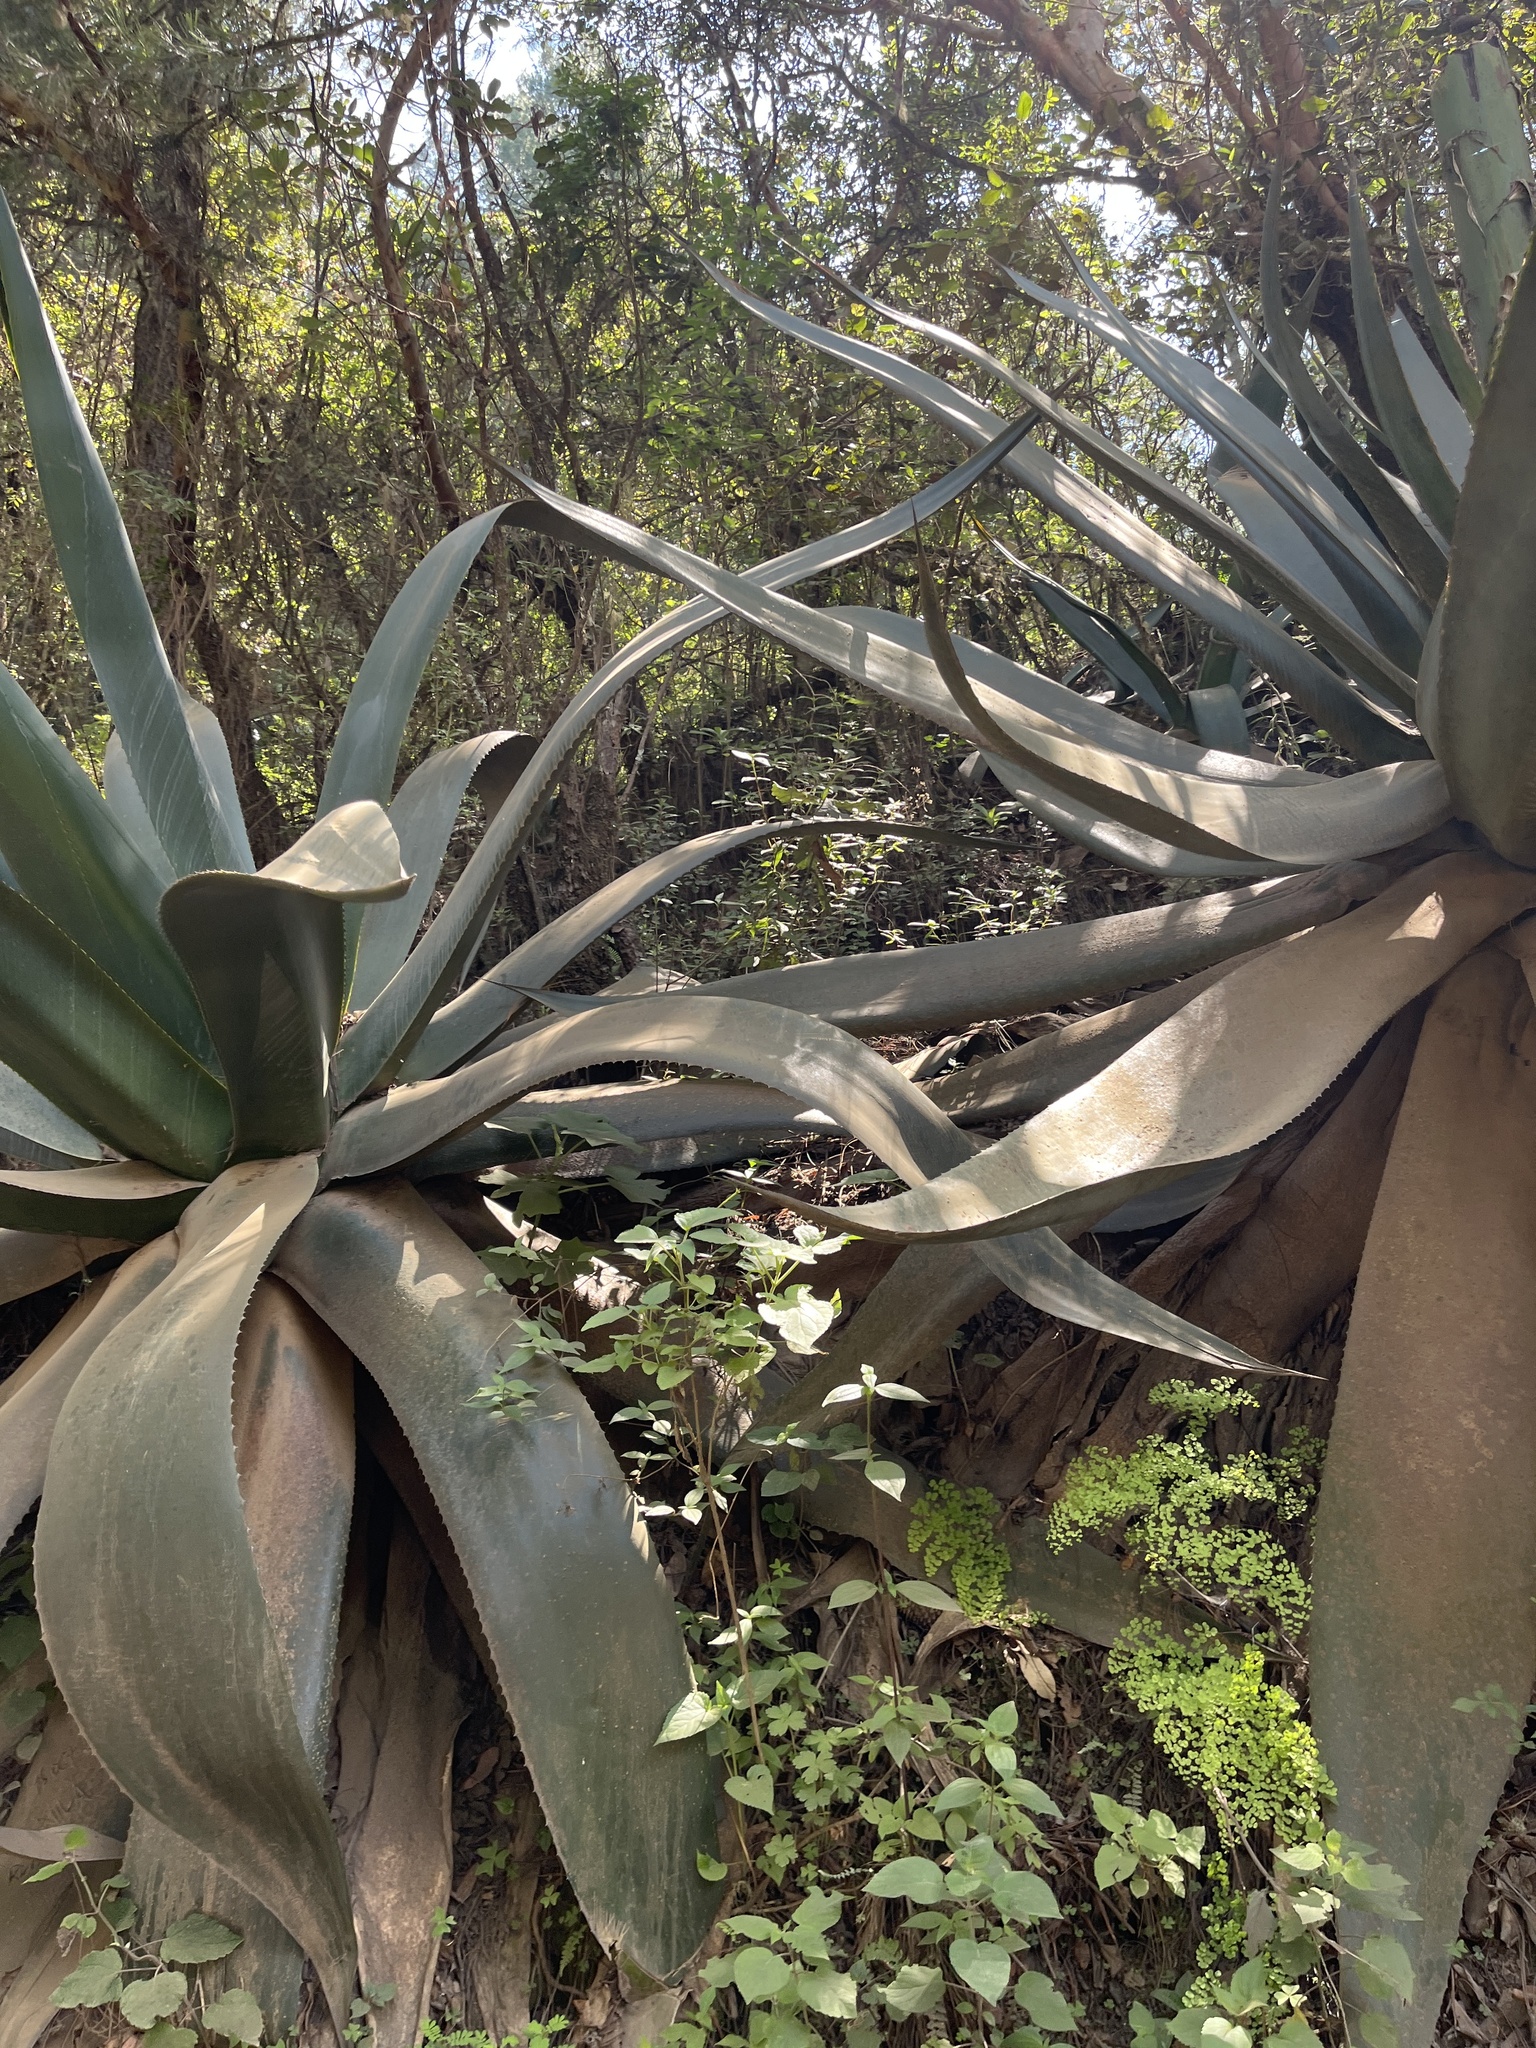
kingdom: Plantae
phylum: Tracheophyta
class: Liliopsida
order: Asparagales
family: Asparagaceae
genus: Agave
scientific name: Agave atrovirens
